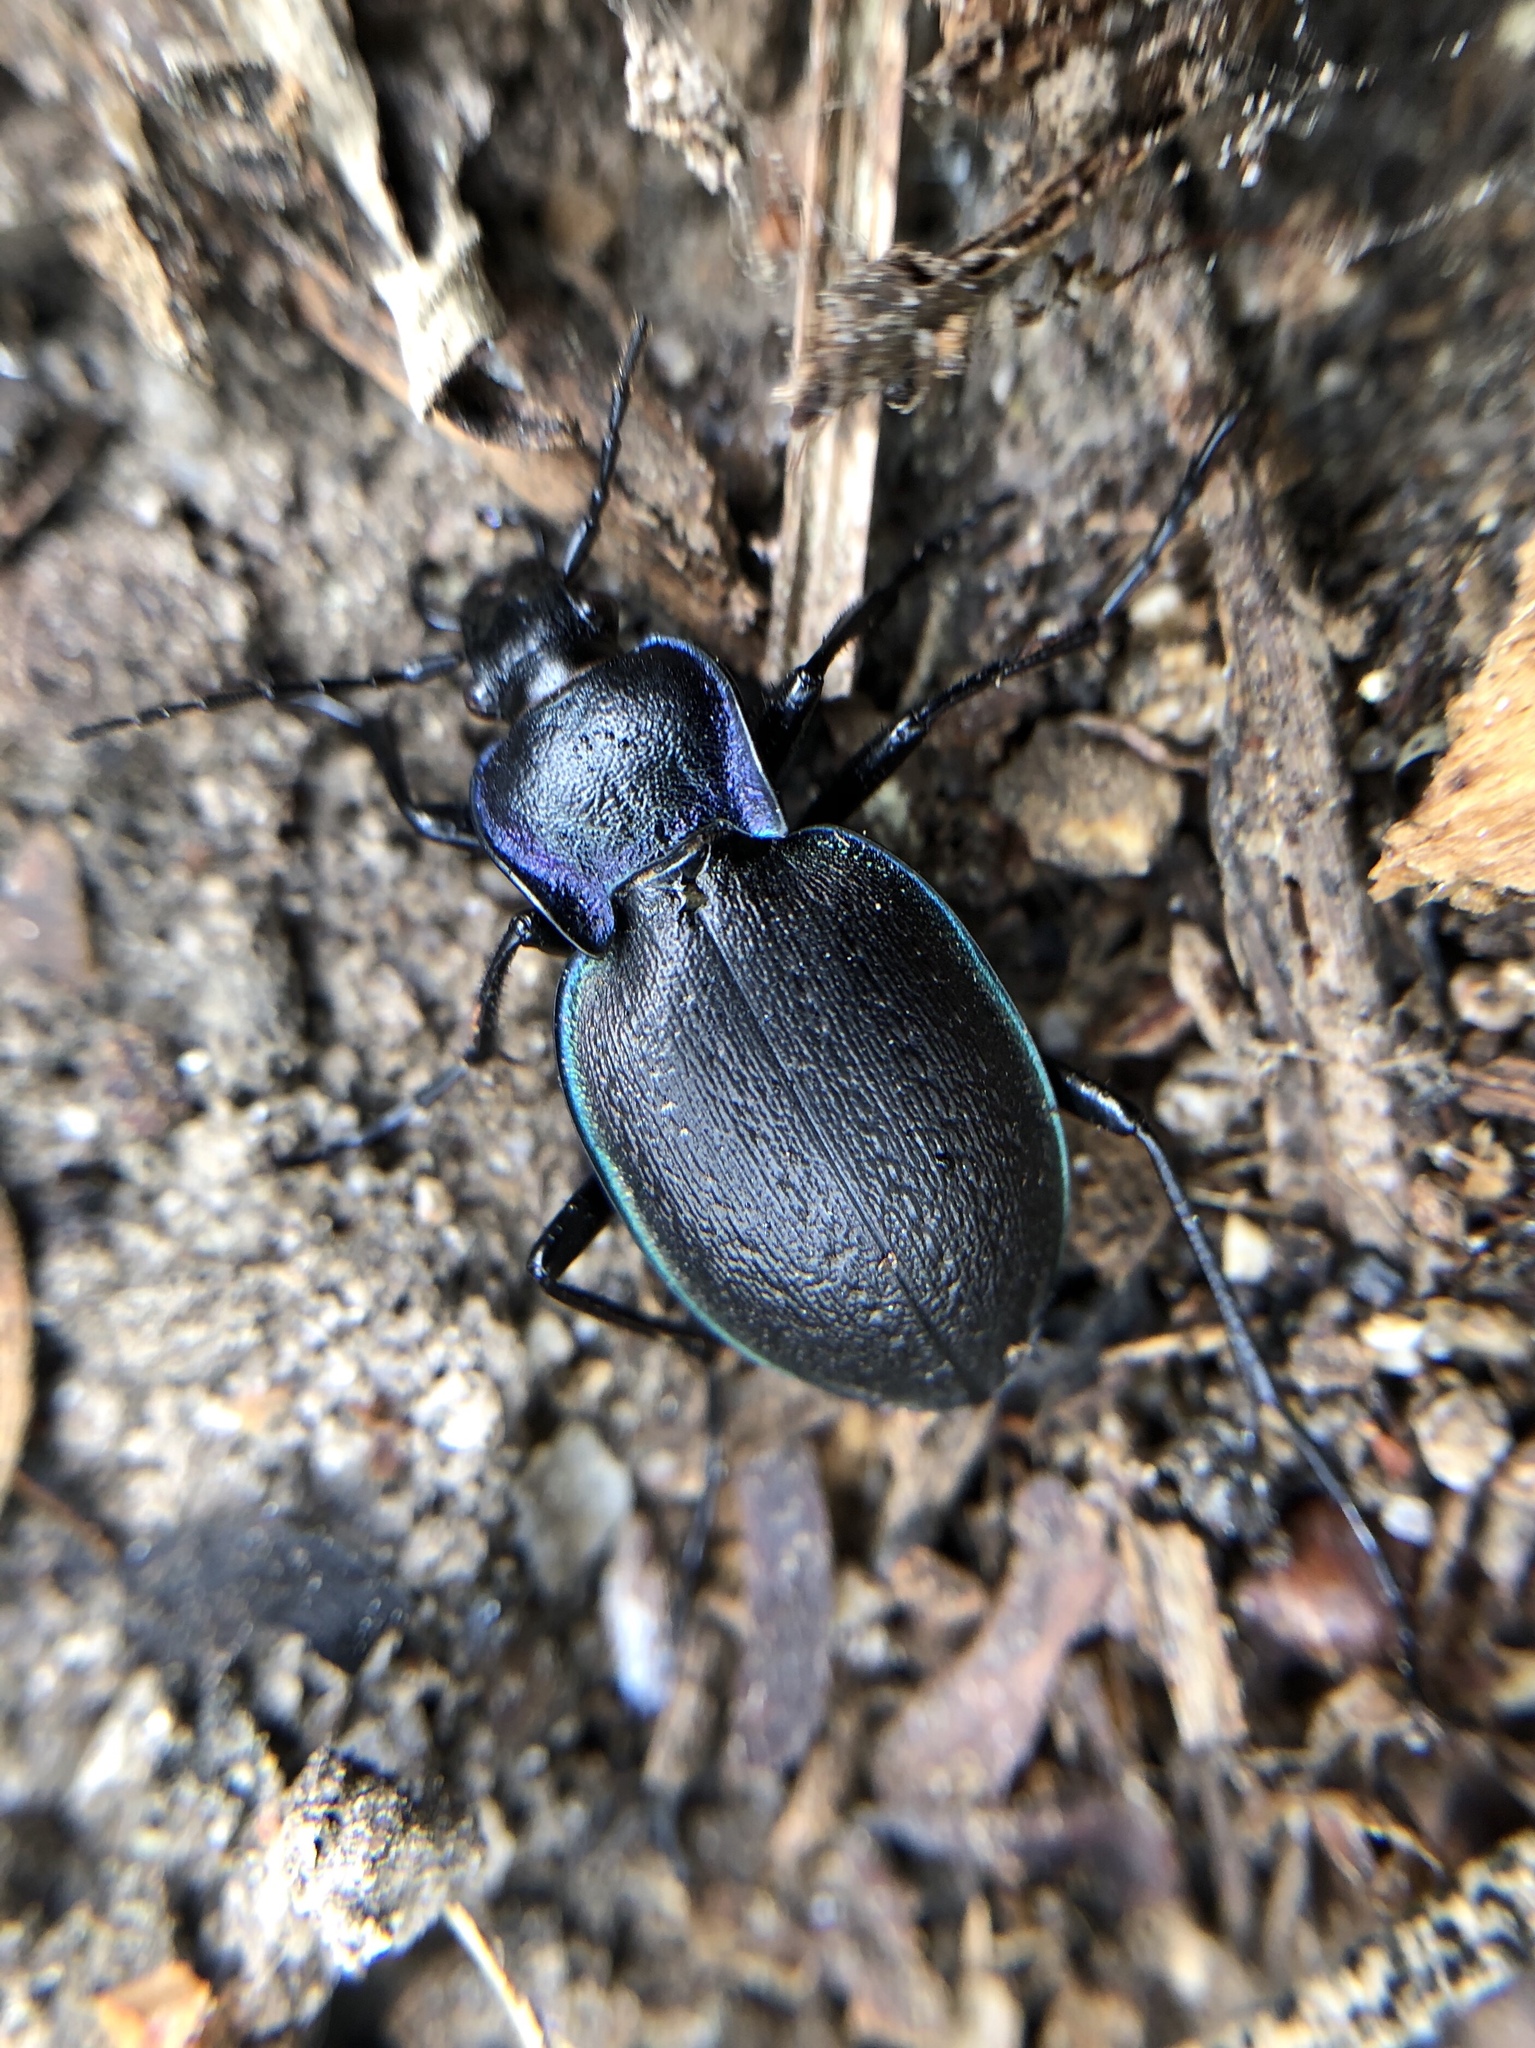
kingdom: Animalia
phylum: Arthropoda
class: Insecta
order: Coleoptera
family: Carabidae
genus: Carabus
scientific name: Carabus guadarramus
